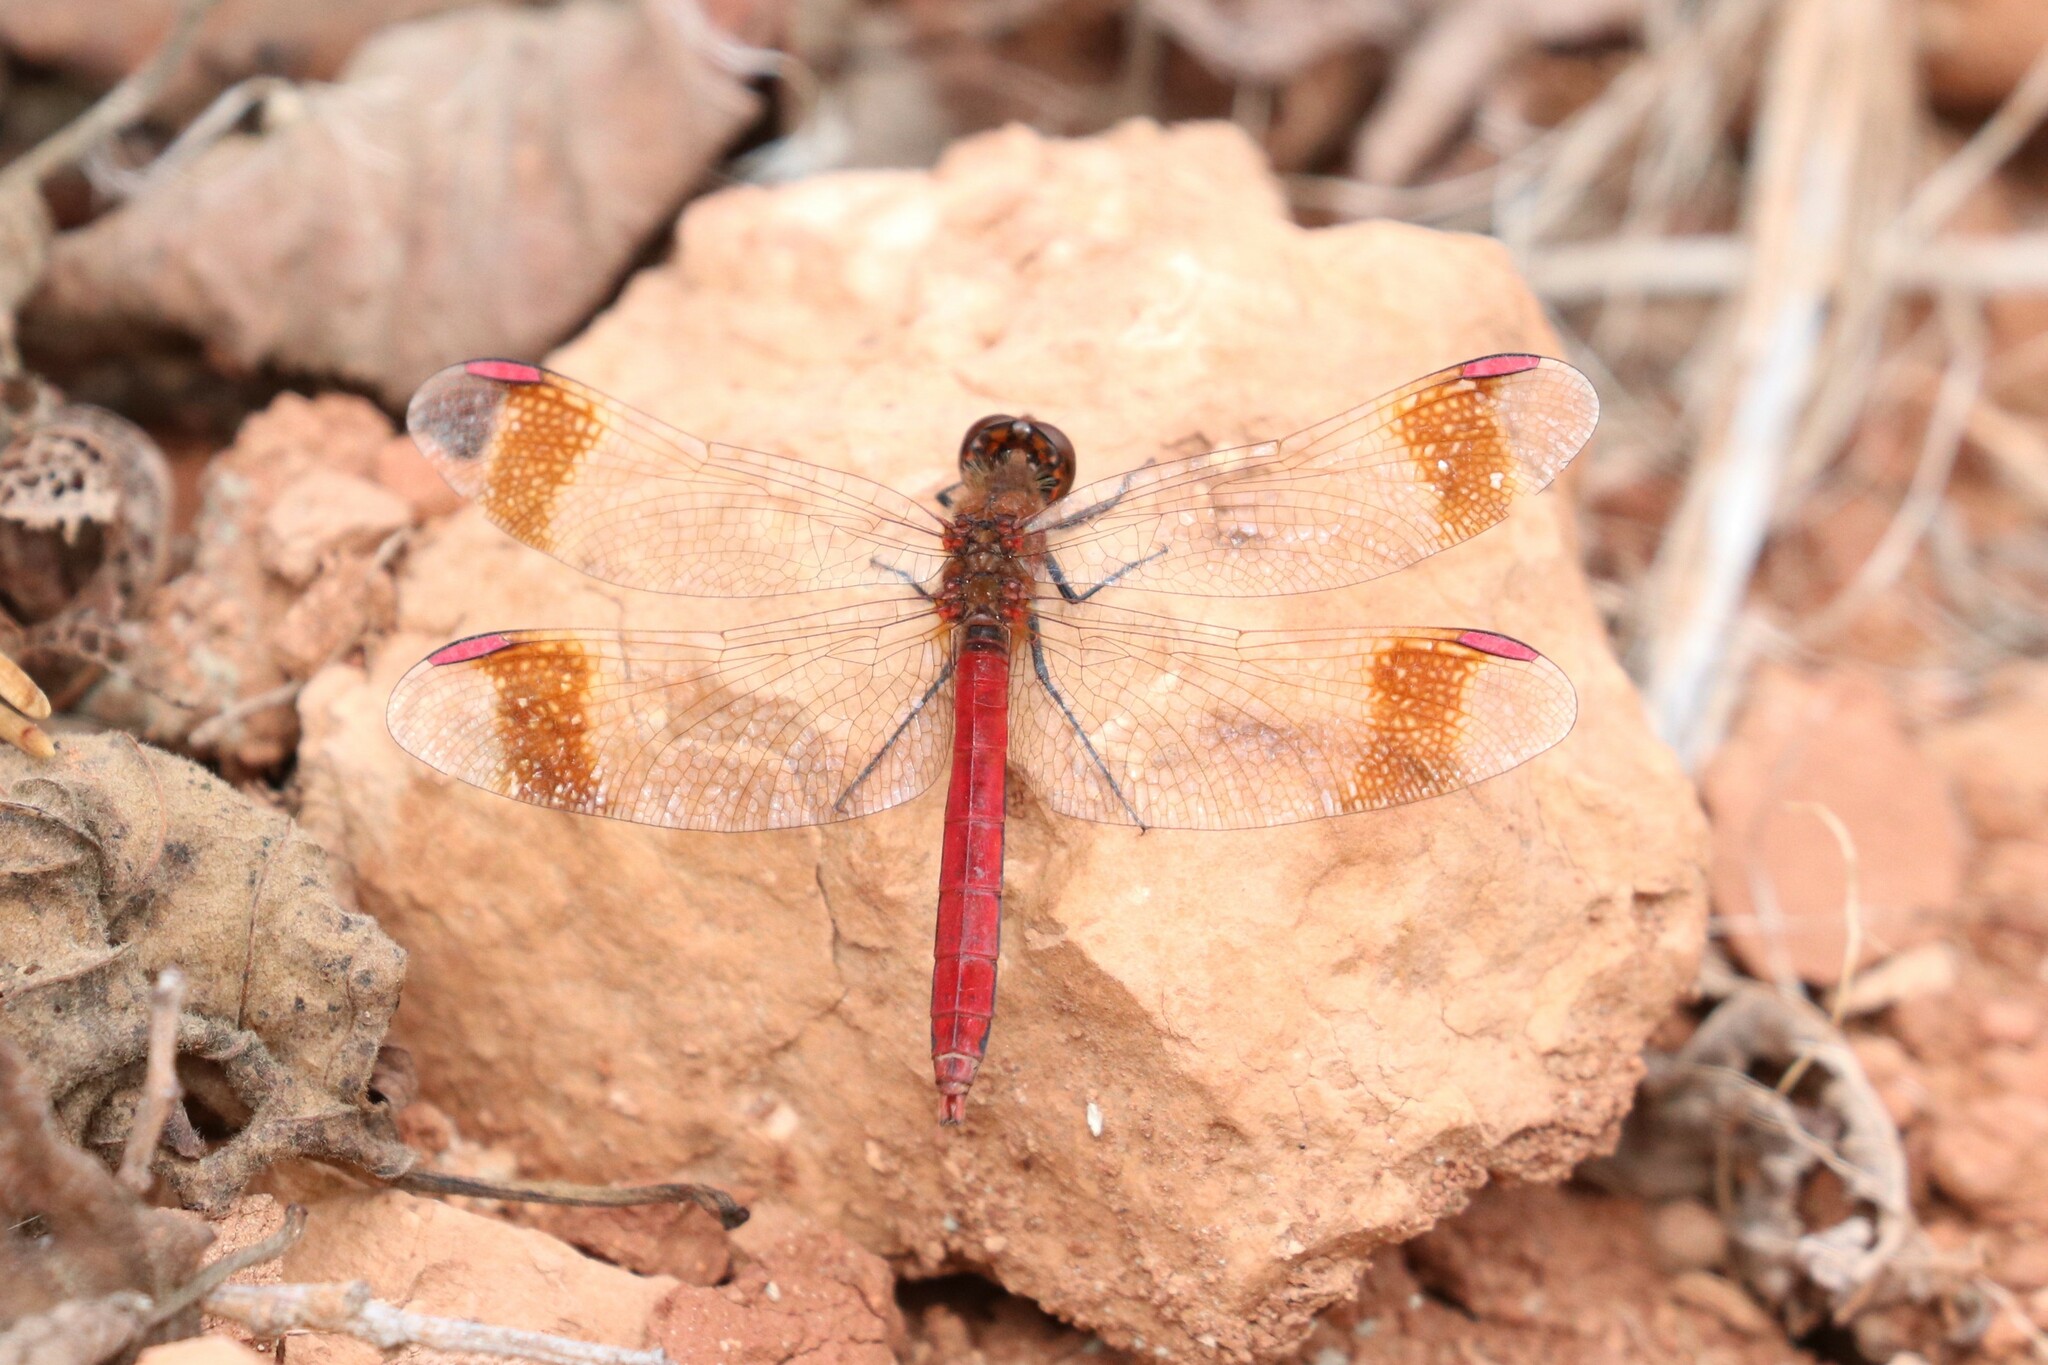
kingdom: Animalia
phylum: Arthropoda
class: Insecta
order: Odonata
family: Libellulidae
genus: Sympetrum
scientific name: Sympetrum pedemontanum
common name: Banded darter
